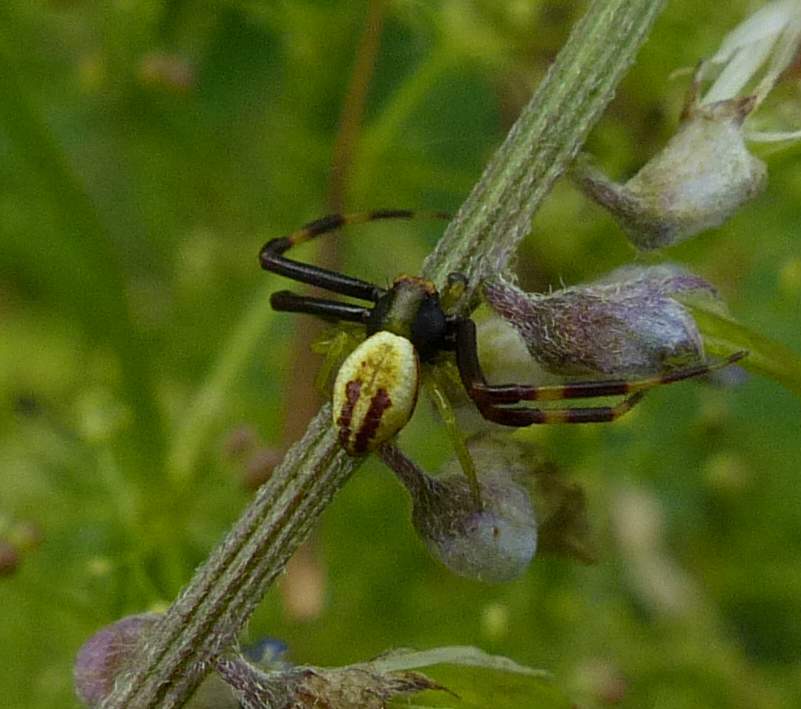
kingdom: Animalia
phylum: Arthropoda
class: Arachnida
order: Araneae
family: Thomisidae
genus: Misumena
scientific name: Misumena vatia
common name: Goldenrod crab spider
